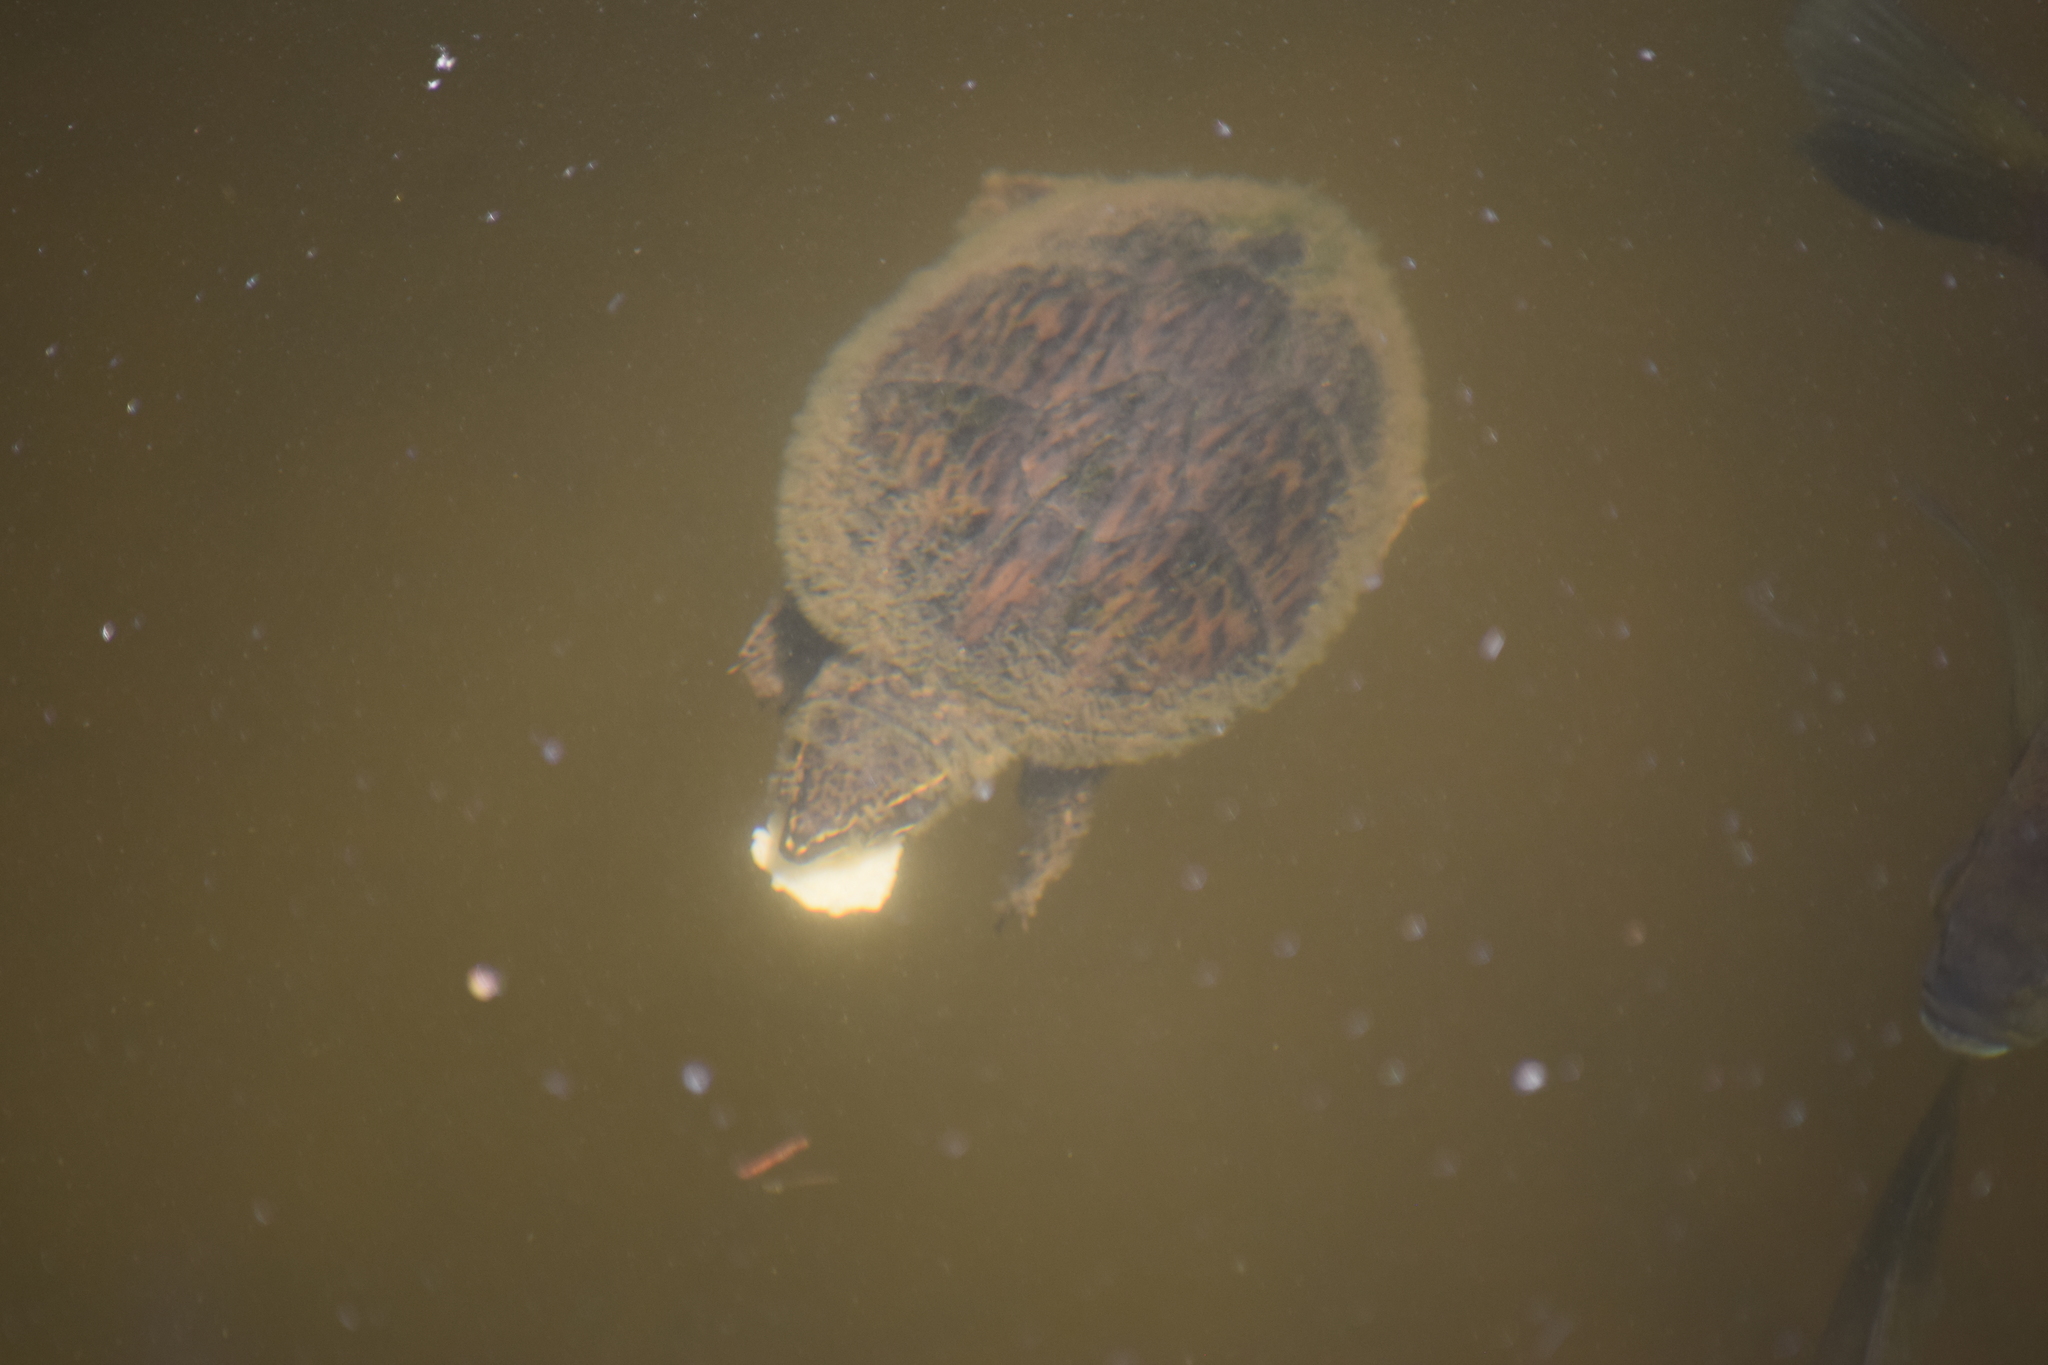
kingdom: Animalia
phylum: Chordata
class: Testudines
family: Kinosternidae
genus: Sternotherus
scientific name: Sternotherus odoratus
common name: Common musk turtle
